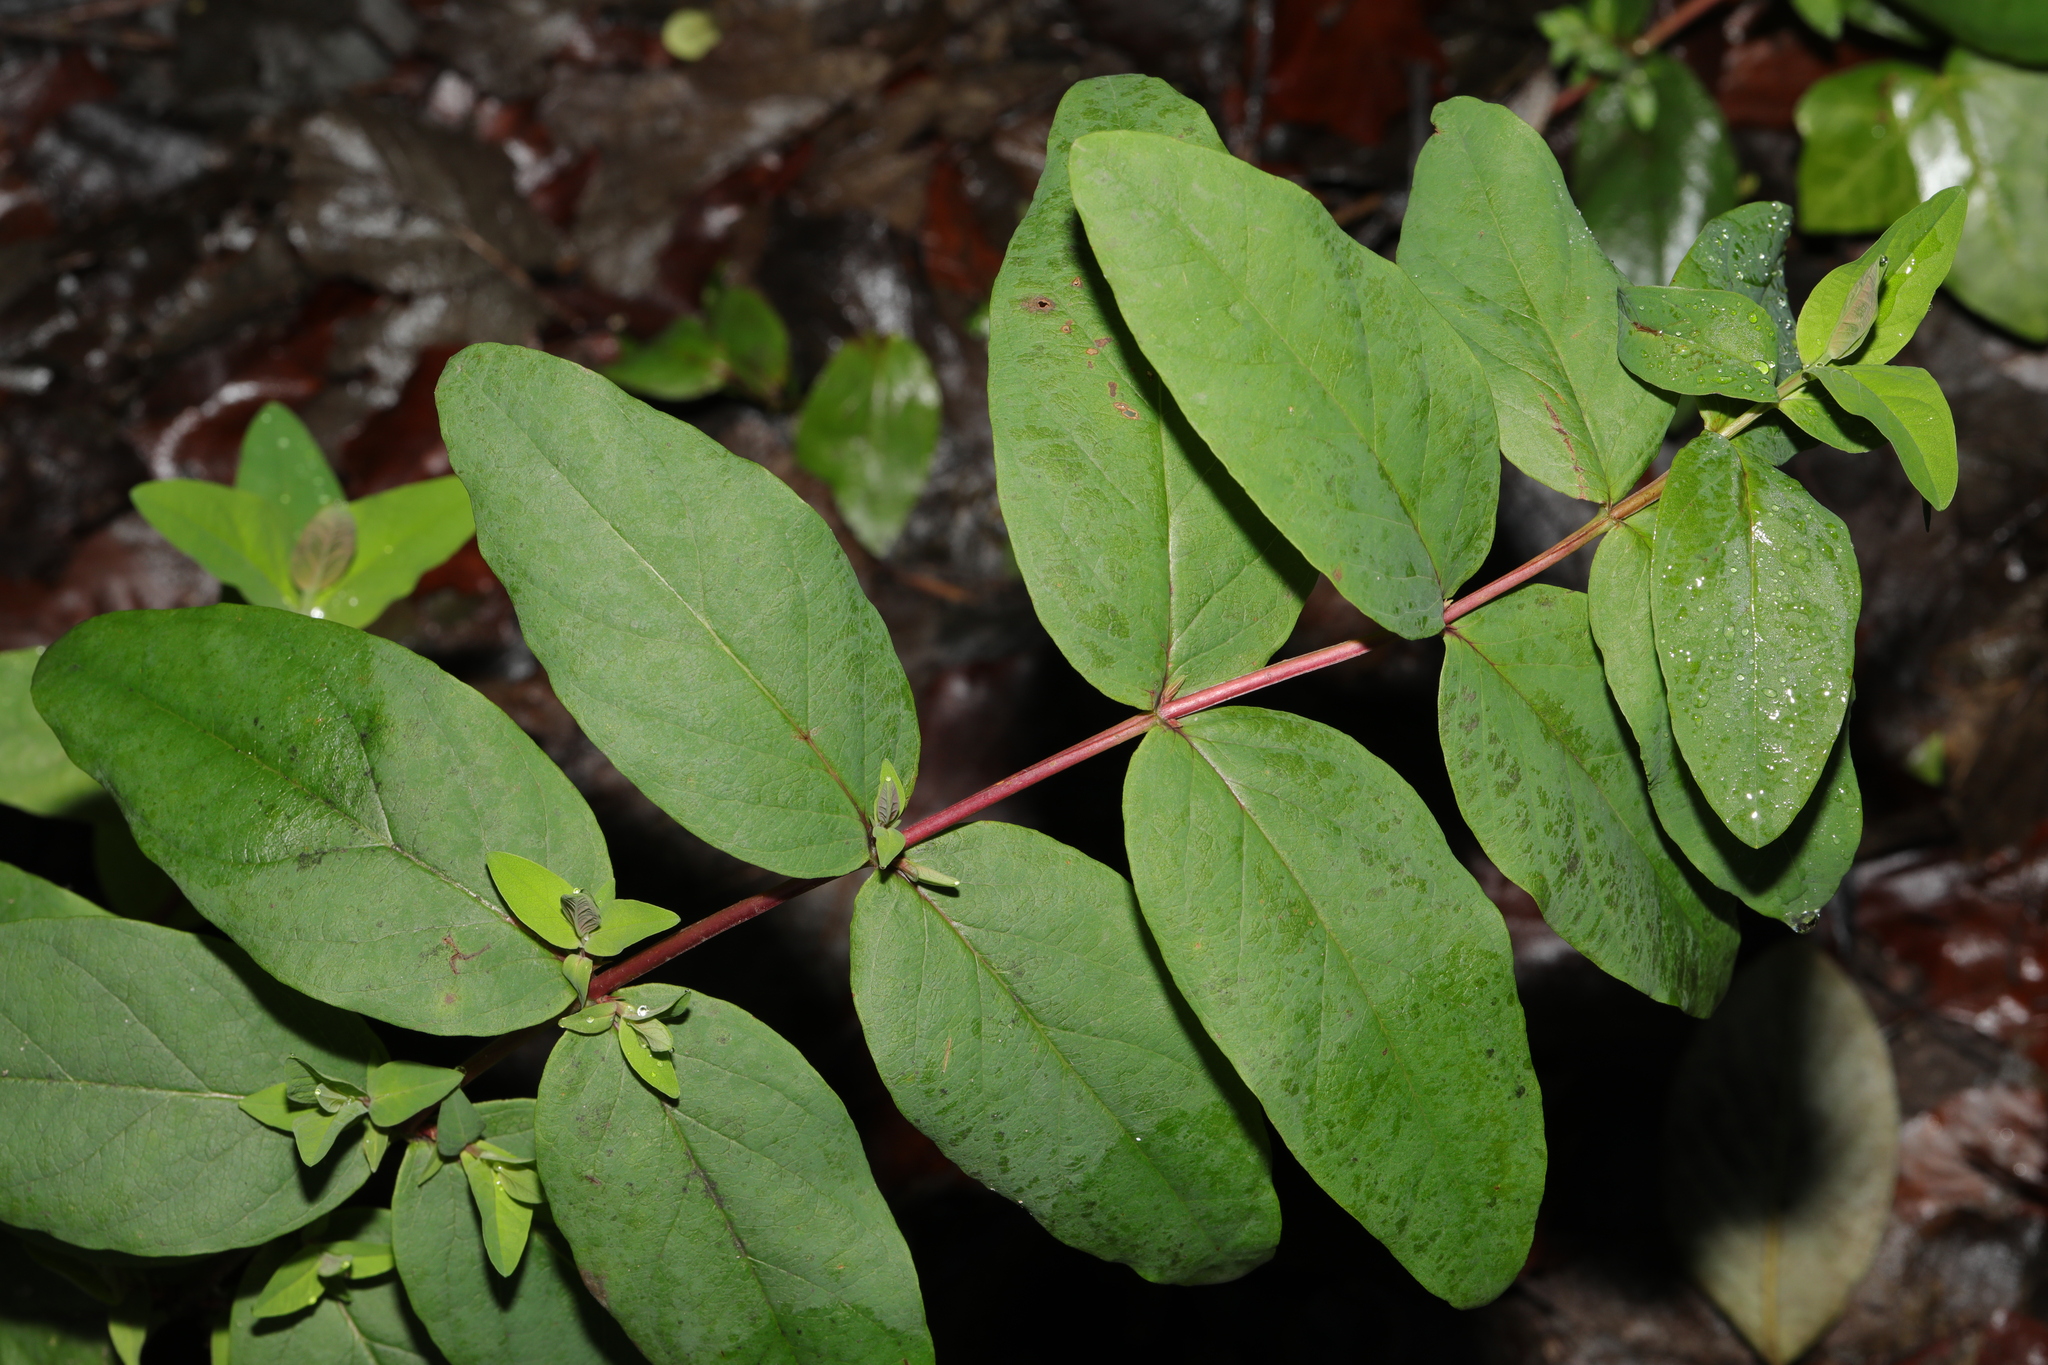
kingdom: Plantae
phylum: Tracheophyta
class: Magnoliopsida
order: Malpighiales
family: Hypericaceae
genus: Hypericum
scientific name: Hypericum androsaemum
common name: Sweet-amber
